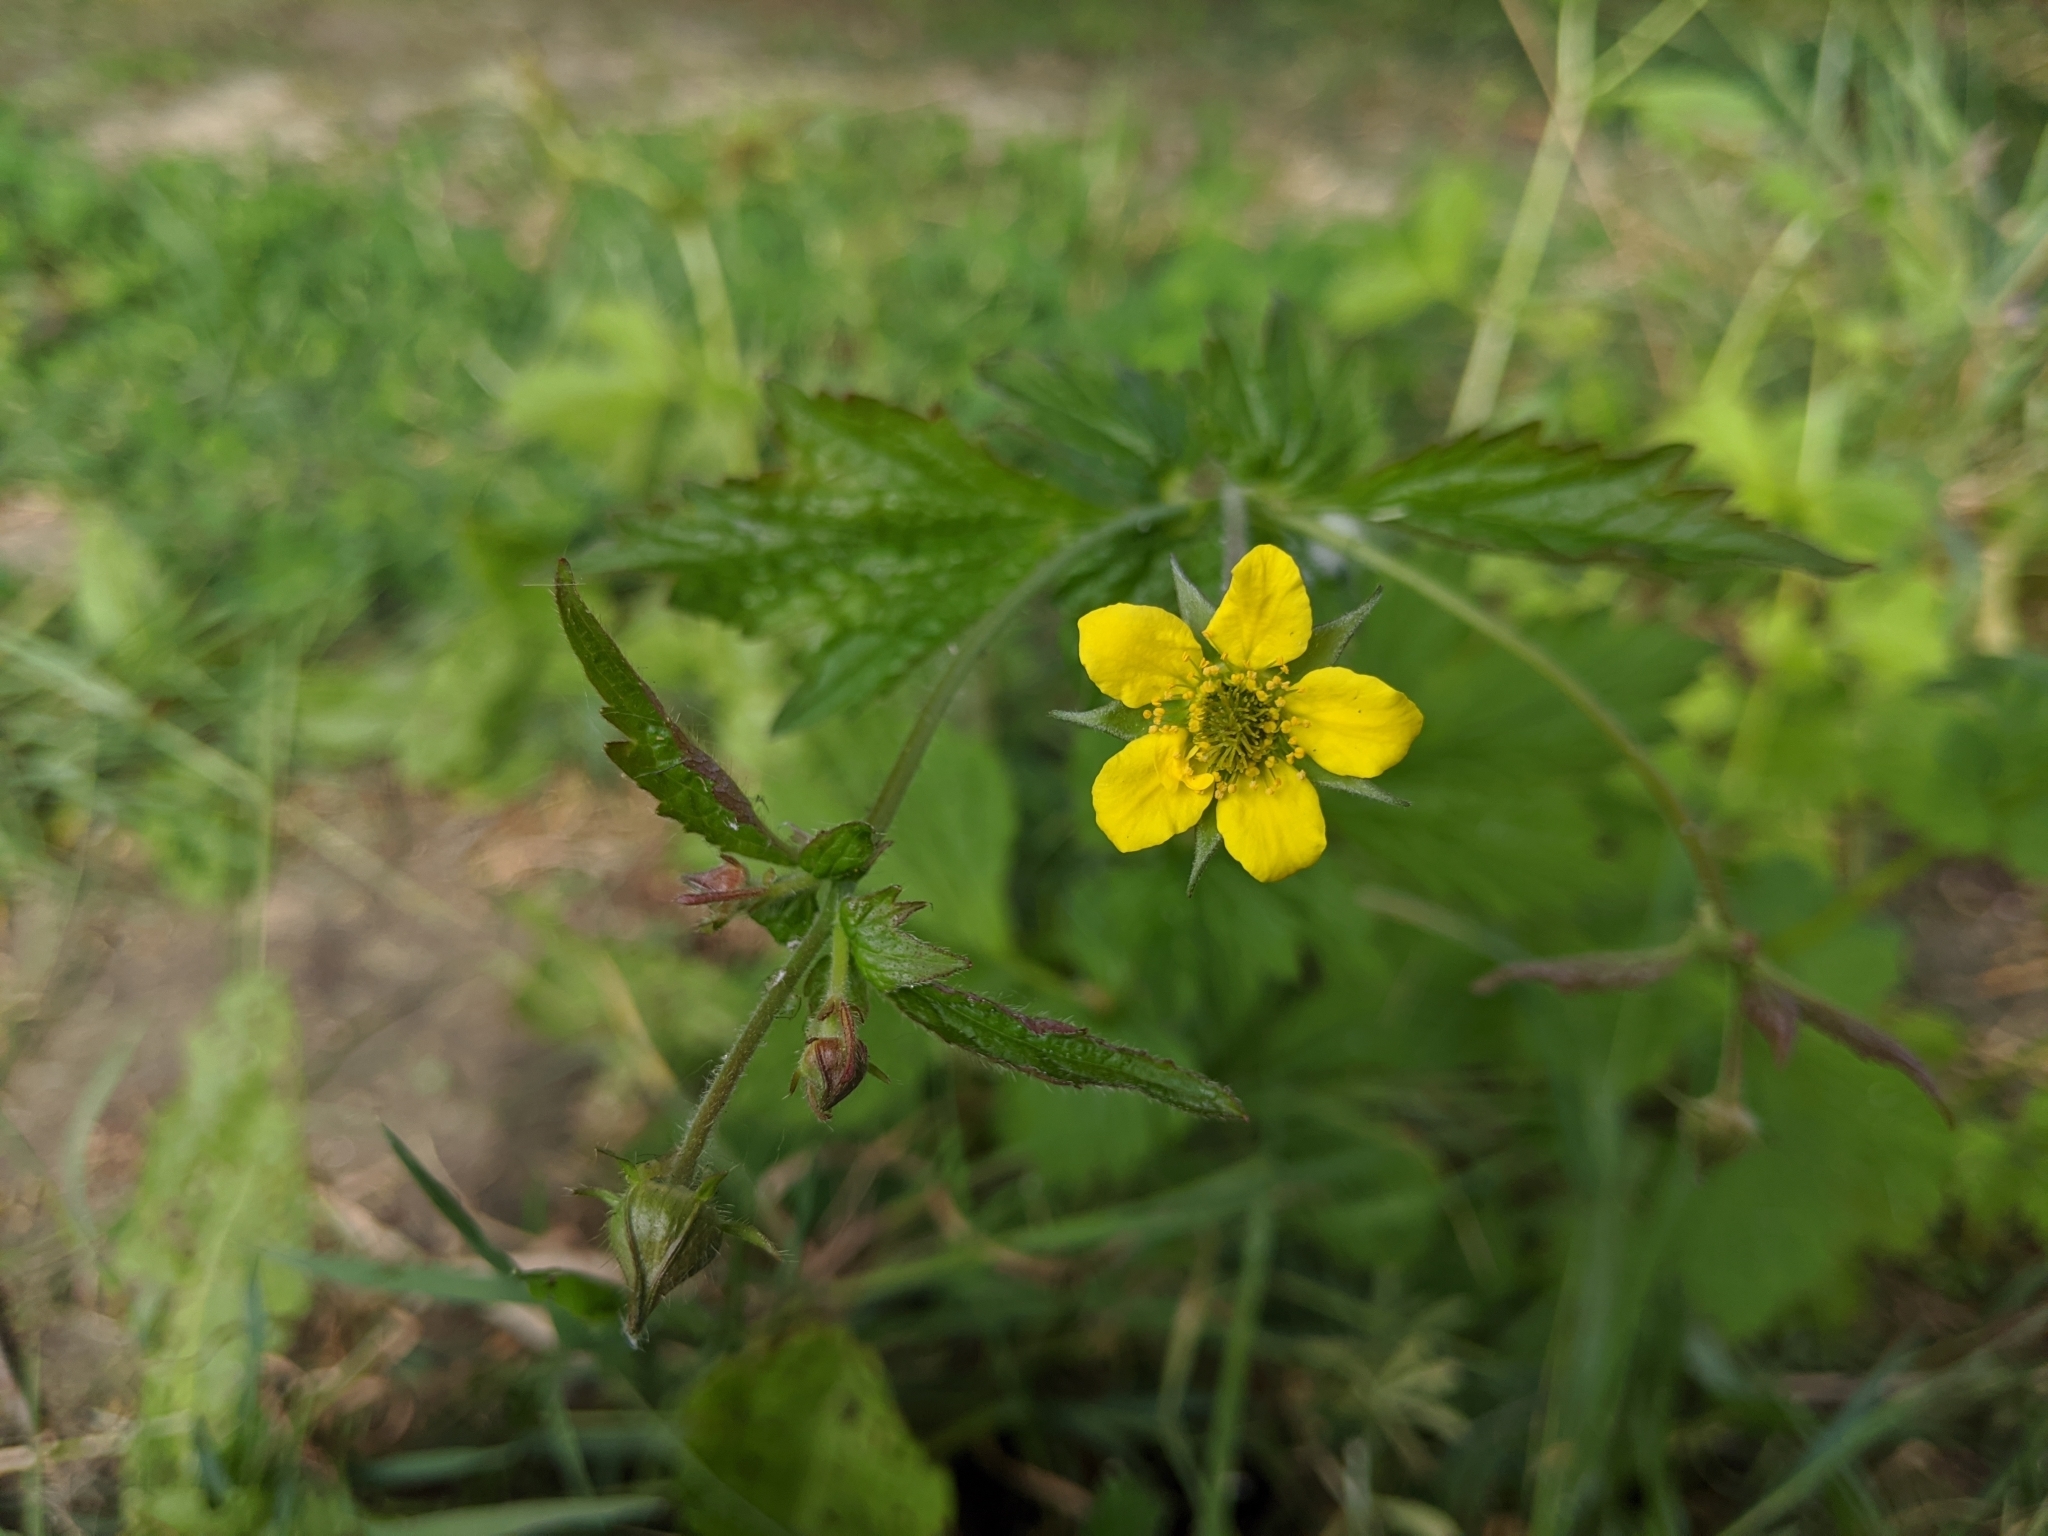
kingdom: Plantae
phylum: Tracheophyta
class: Magnoliopsida
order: Rosales
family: Rosaceae
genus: Geum
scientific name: Geum urbanum
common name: Wood avens
